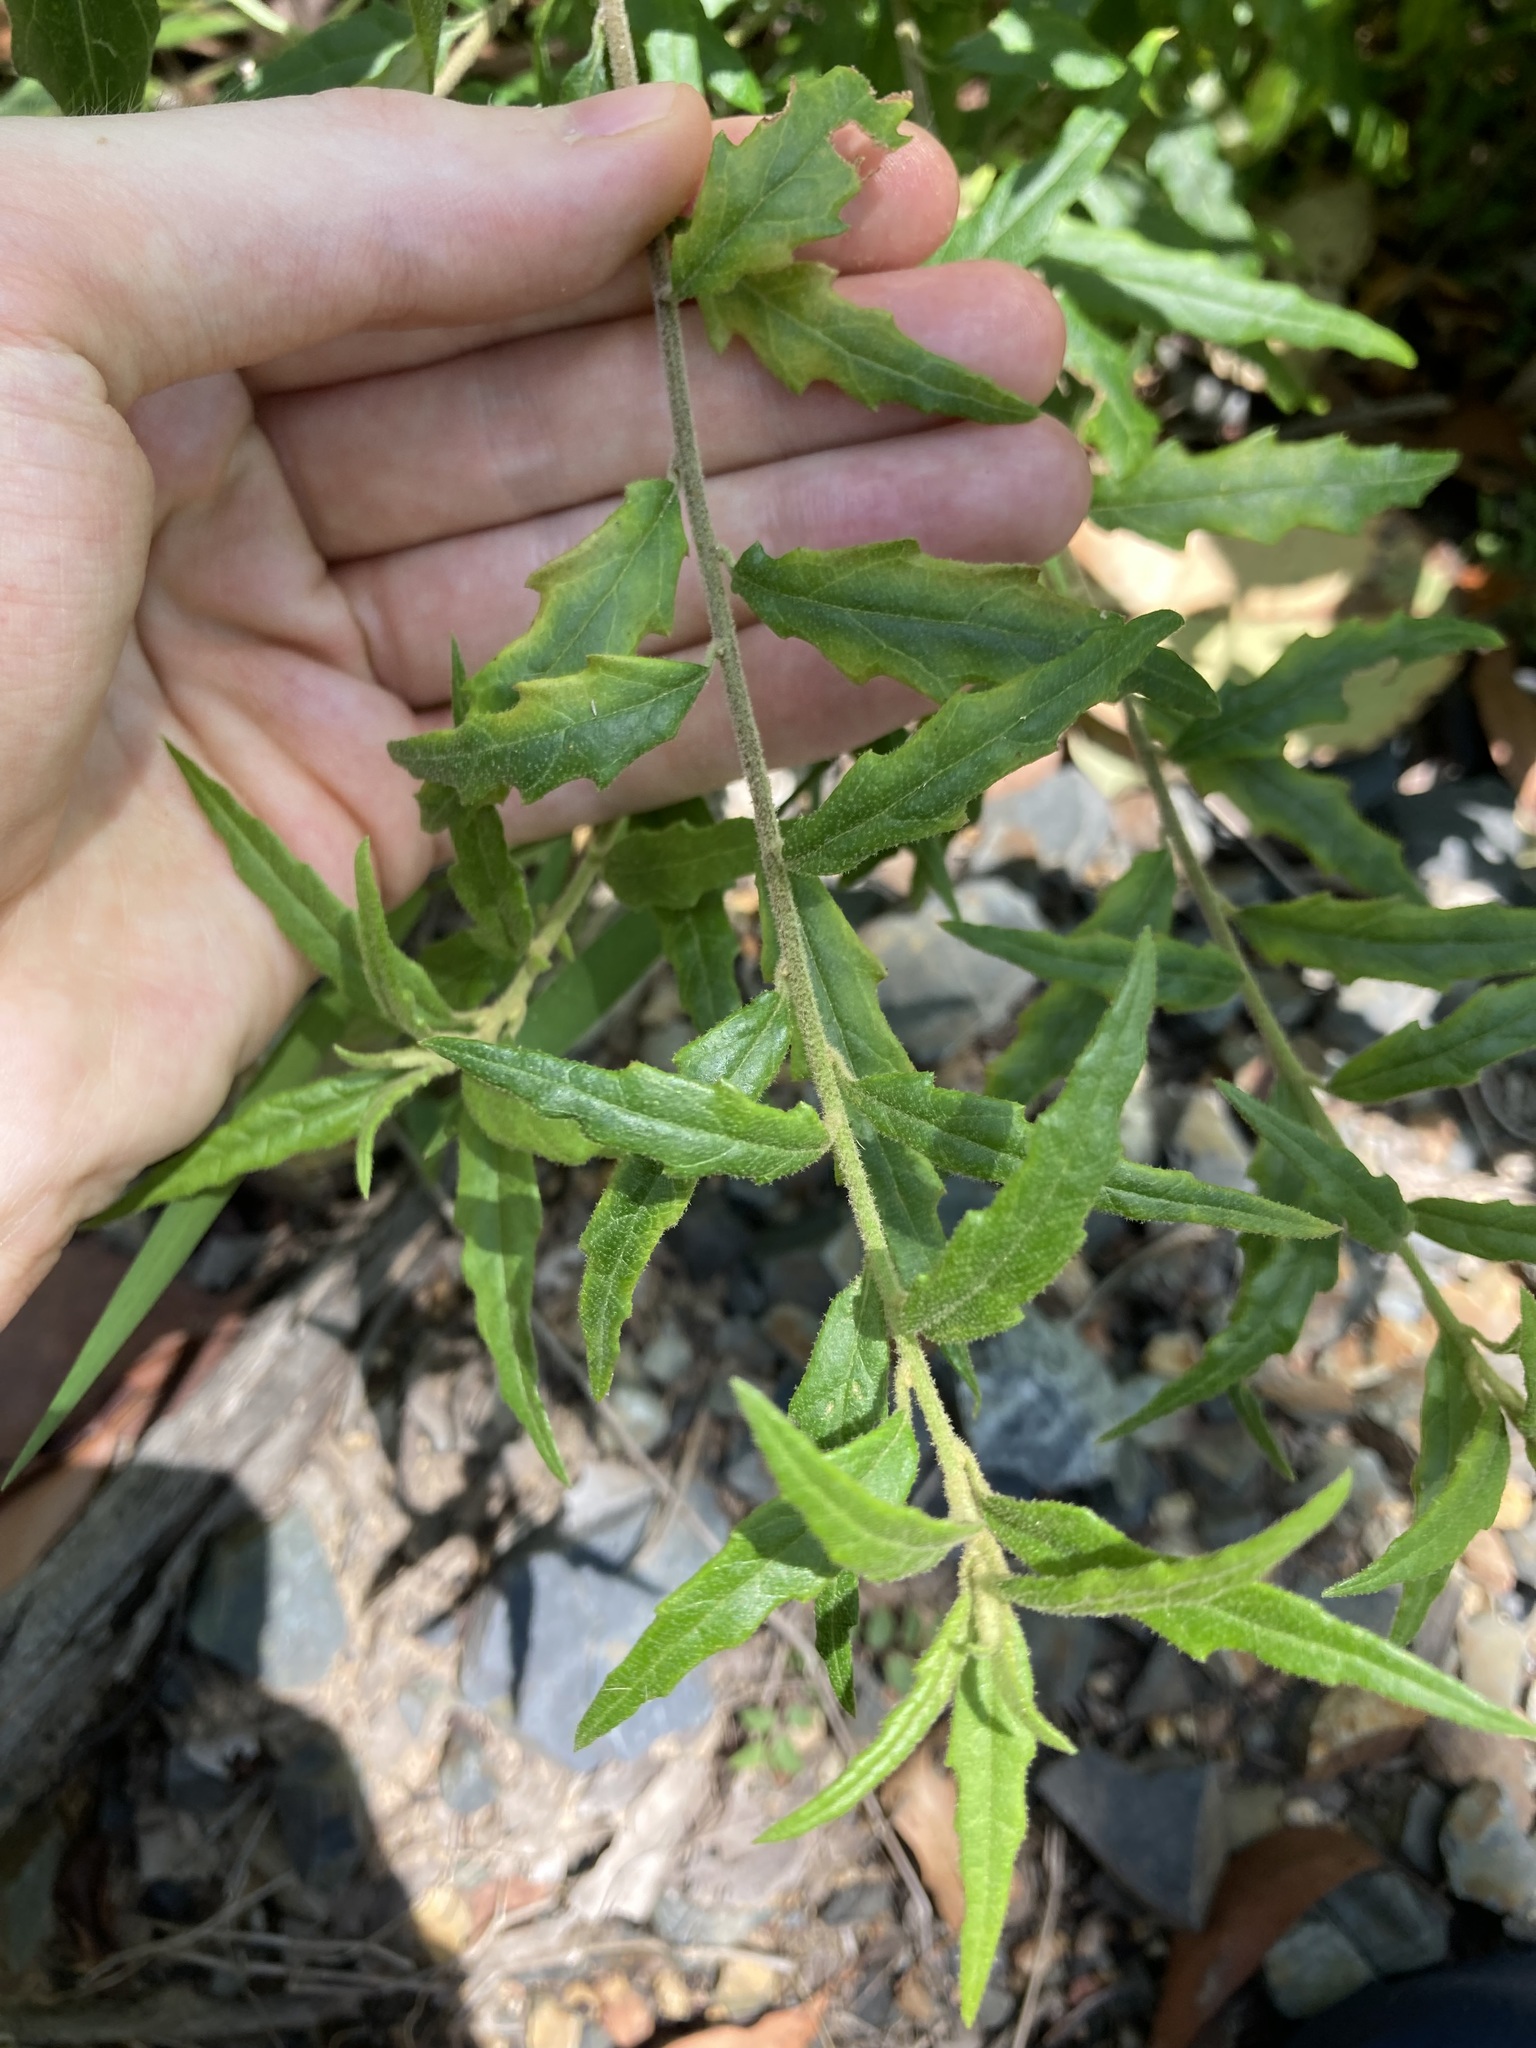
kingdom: Plantae
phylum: Tracheophyta
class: Magnoliopsida
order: Asterales
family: Asteraceae
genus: Olearia
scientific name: Olearia nernstii
